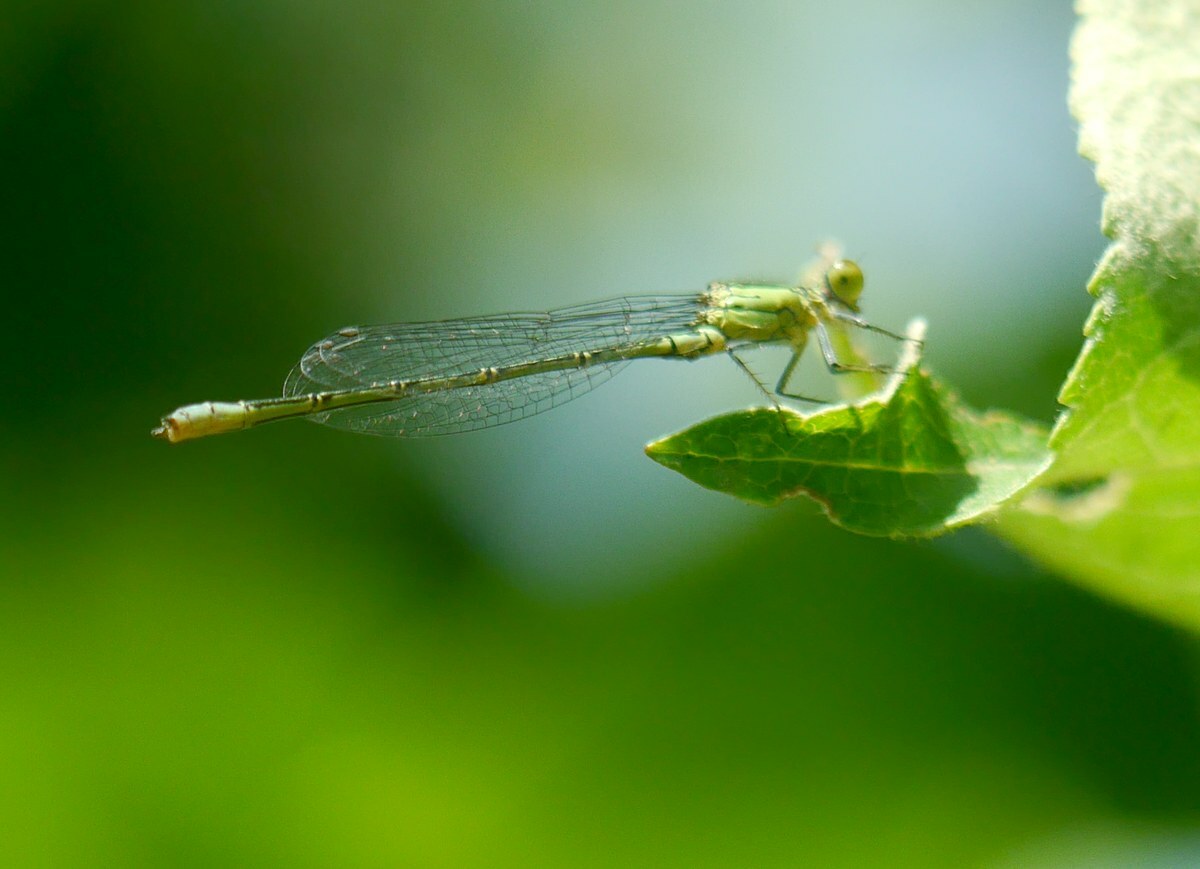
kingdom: Animalia
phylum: Arthropoda
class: Insecta
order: Odonata
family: Coenagrionidae
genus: Erythromma
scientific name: Erythromma viridulum
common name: Small red-eyed damselfly
